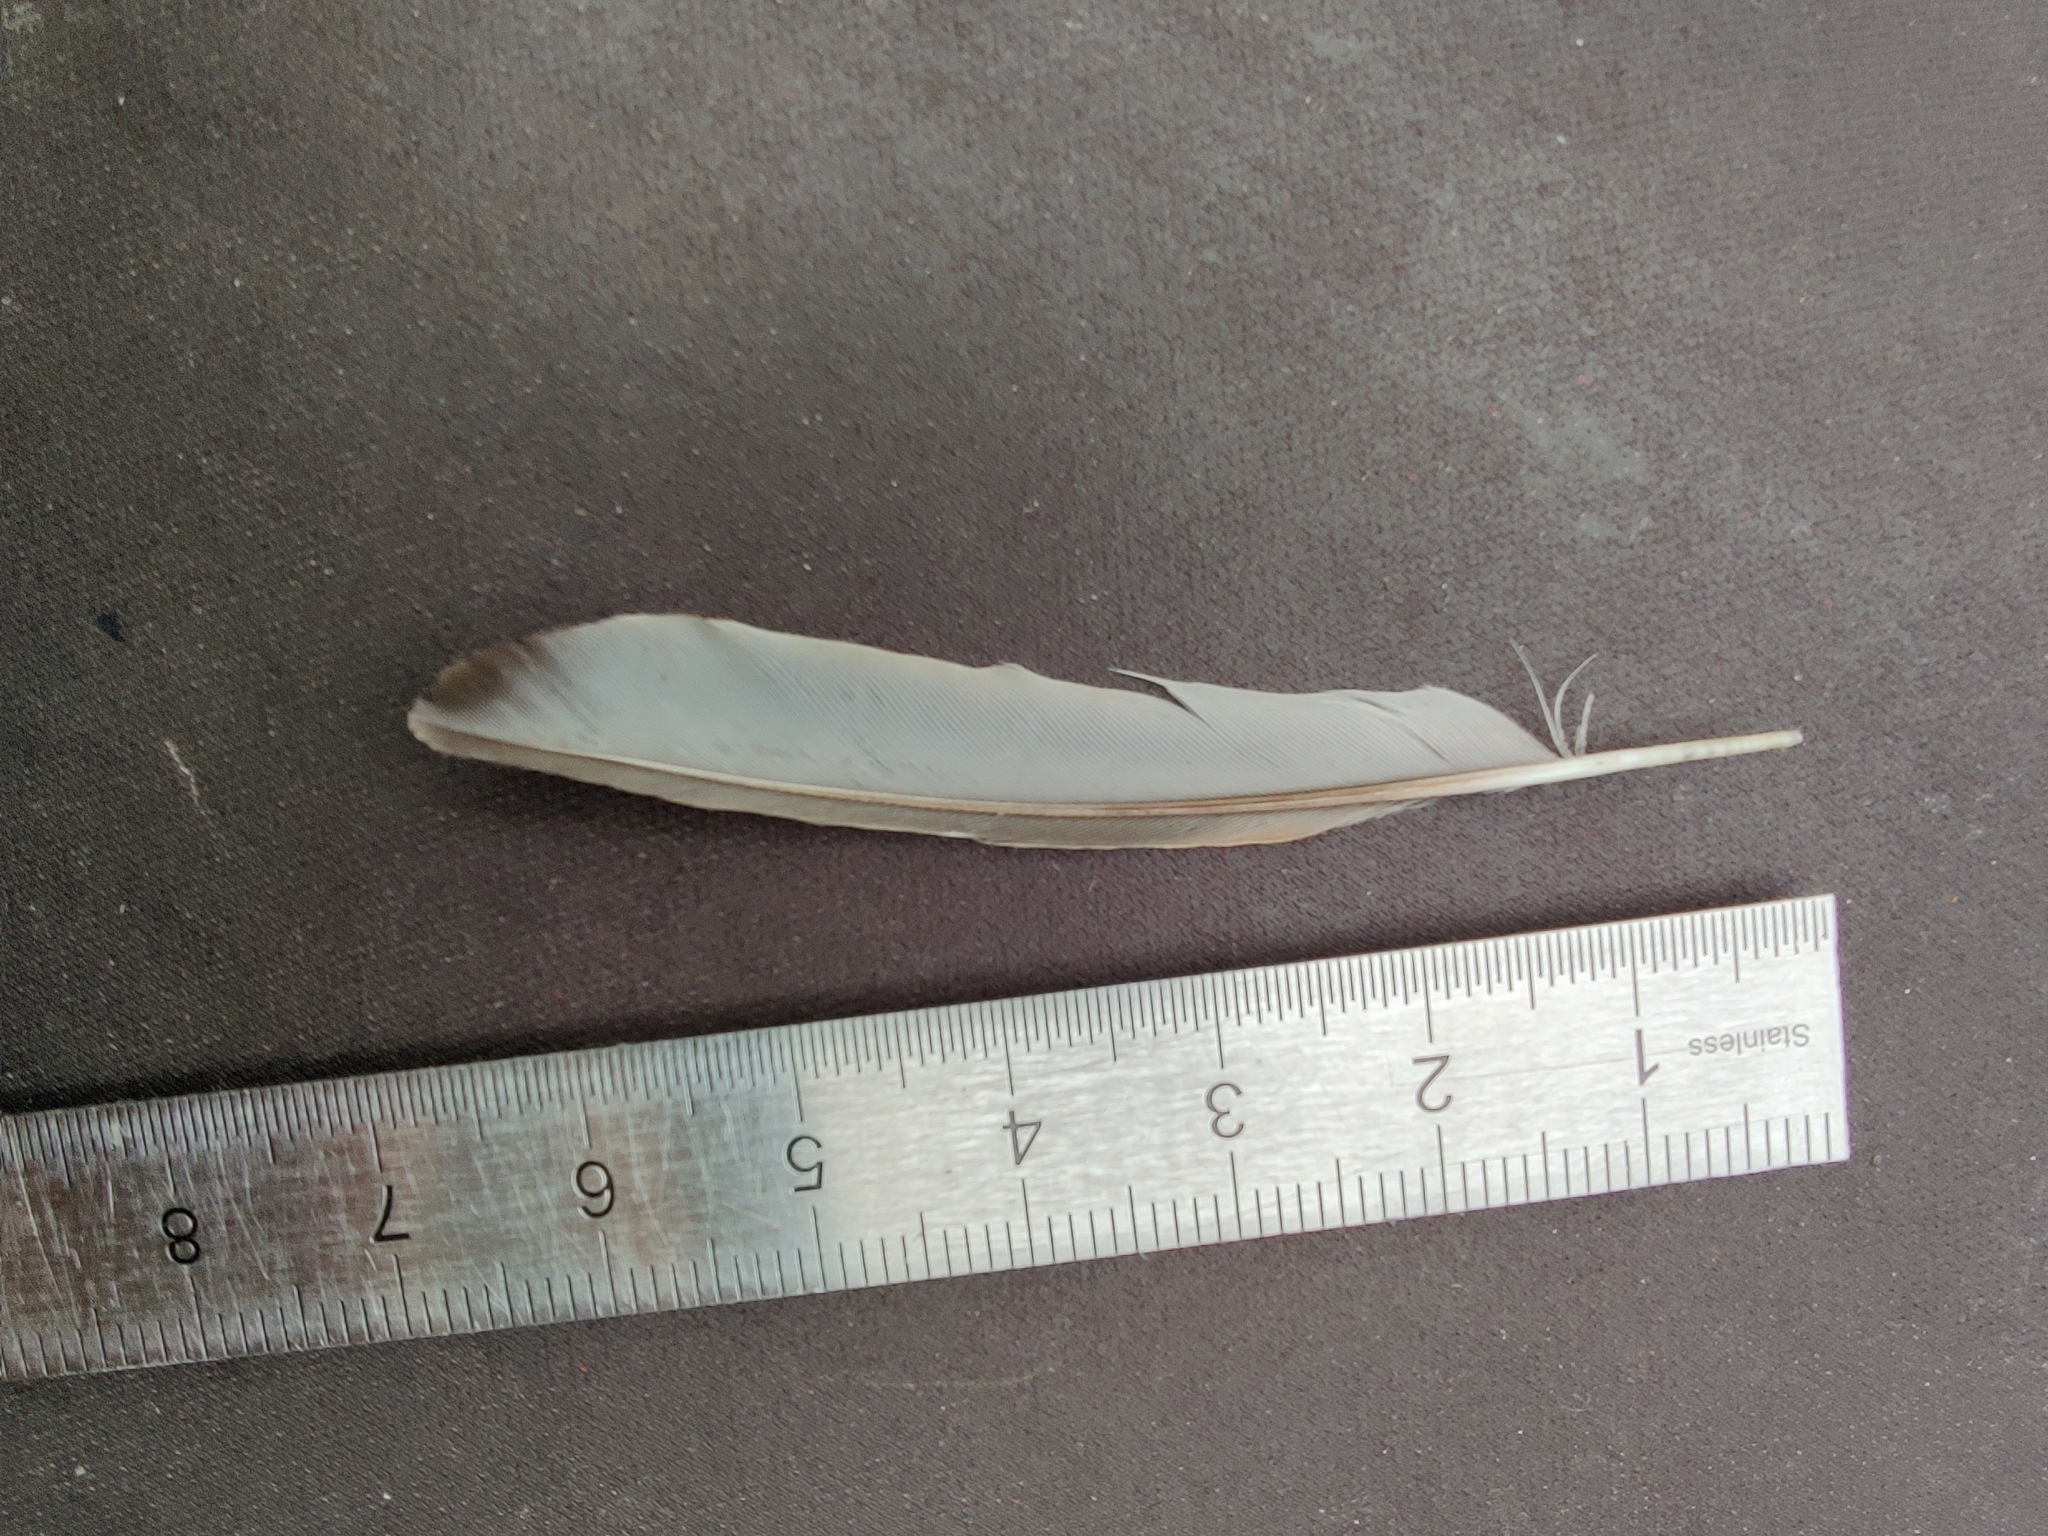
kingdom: Animalia
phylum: Chordata
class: Aves
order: Passeriformes
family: Passeridae
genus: Passer
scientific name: Passer domesticus
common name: House sparrow
